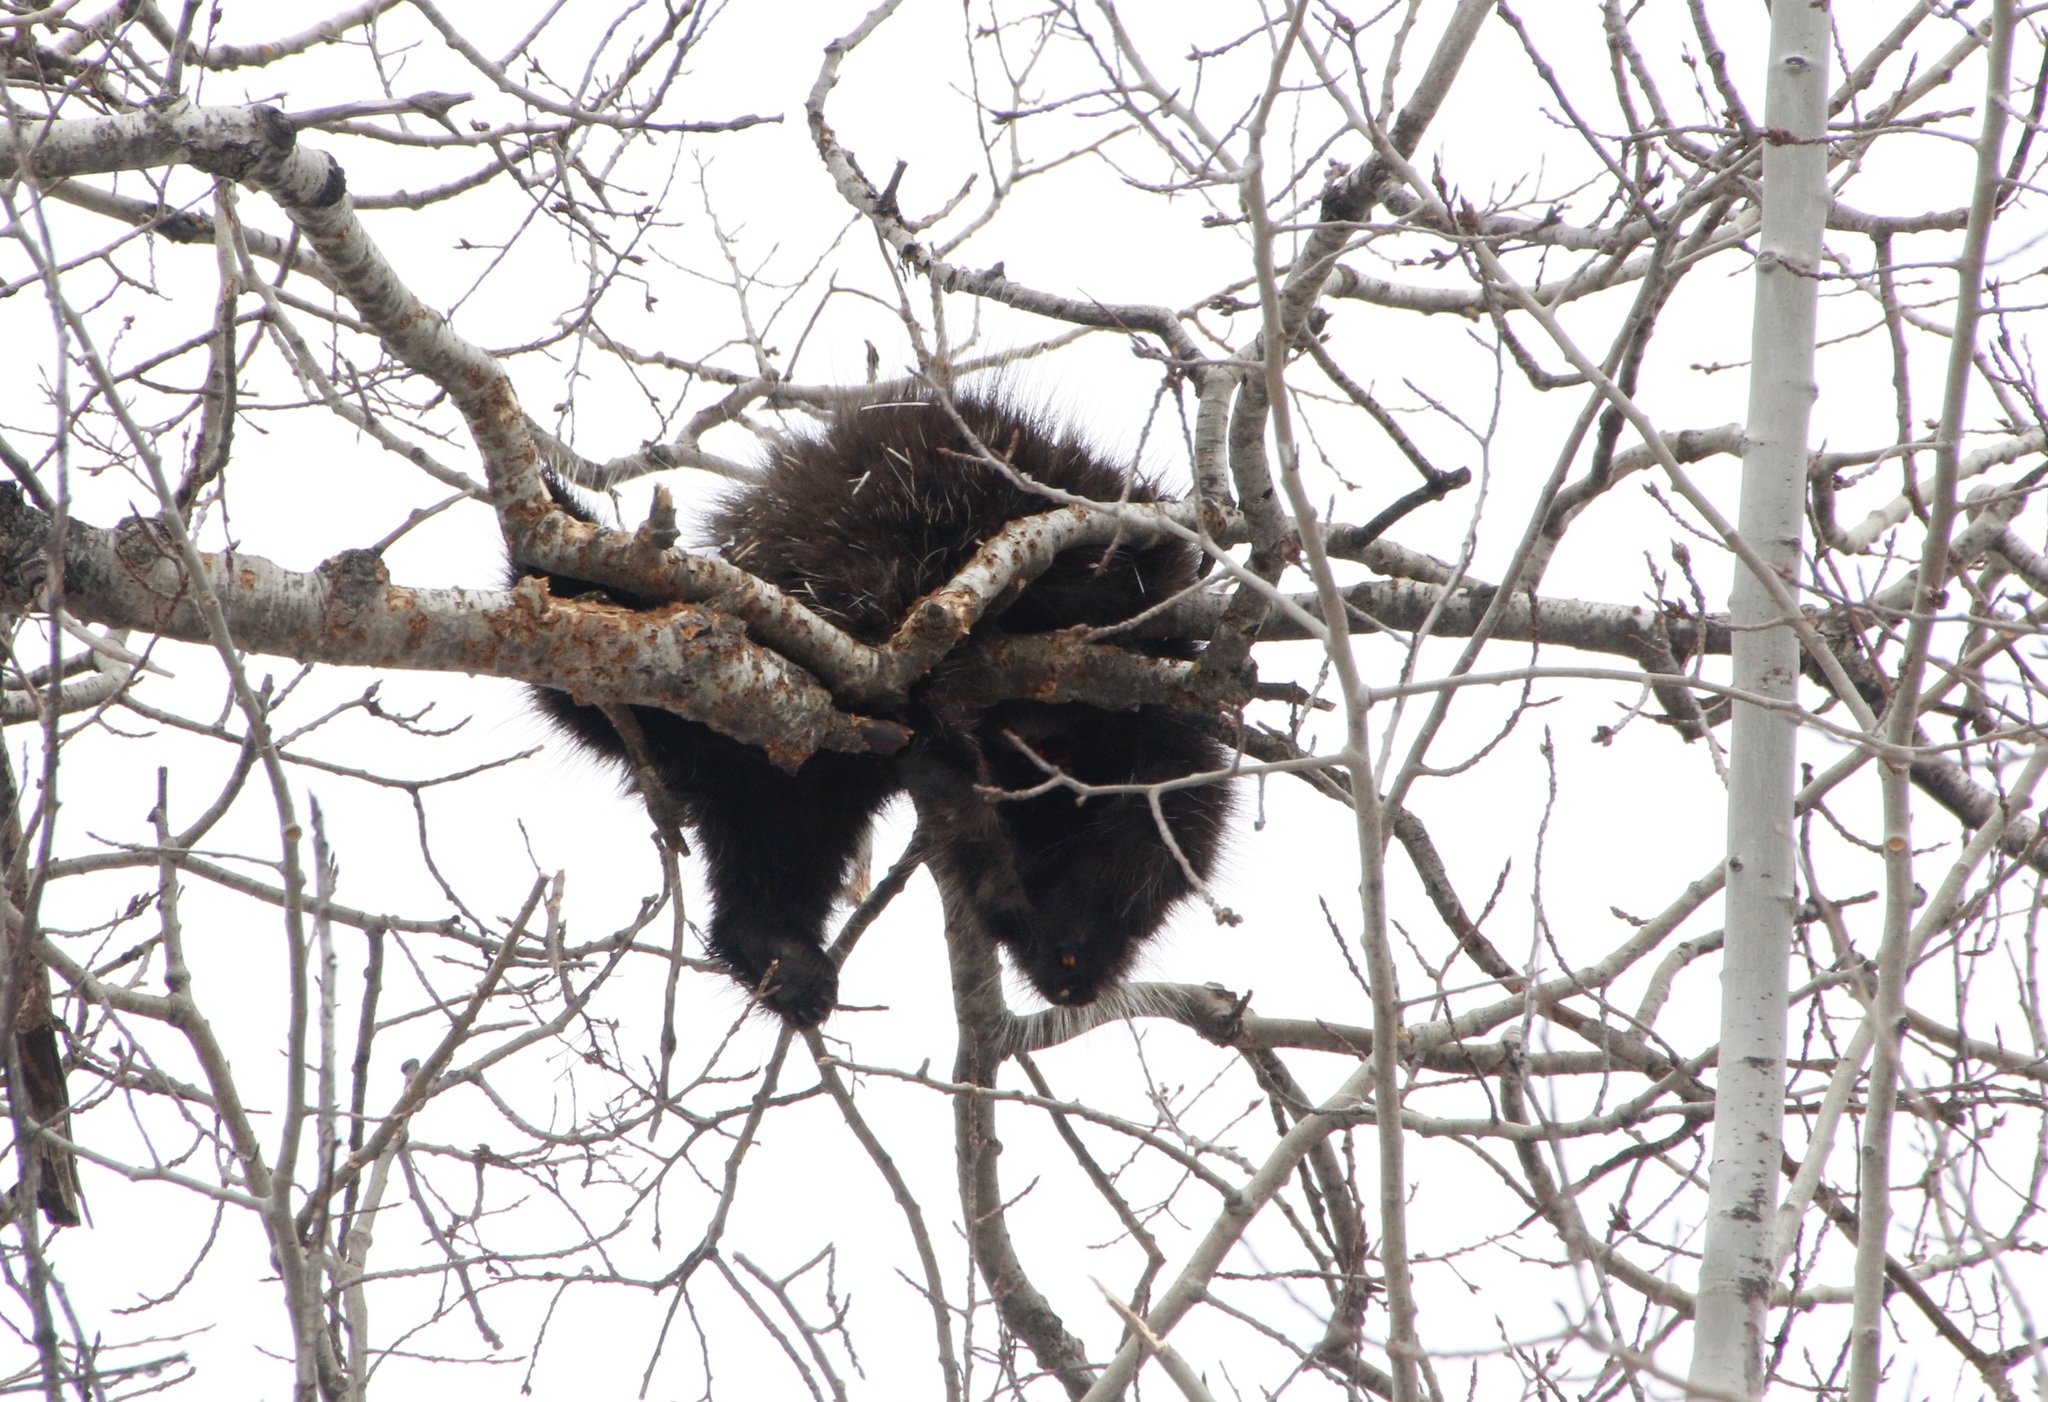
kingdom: Animalia
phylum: Chordata
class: Mammalia
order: Rodentia
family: Erethizontidae
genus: Erethizon
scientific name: Erethizon dorsatus
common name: North american porcupine
